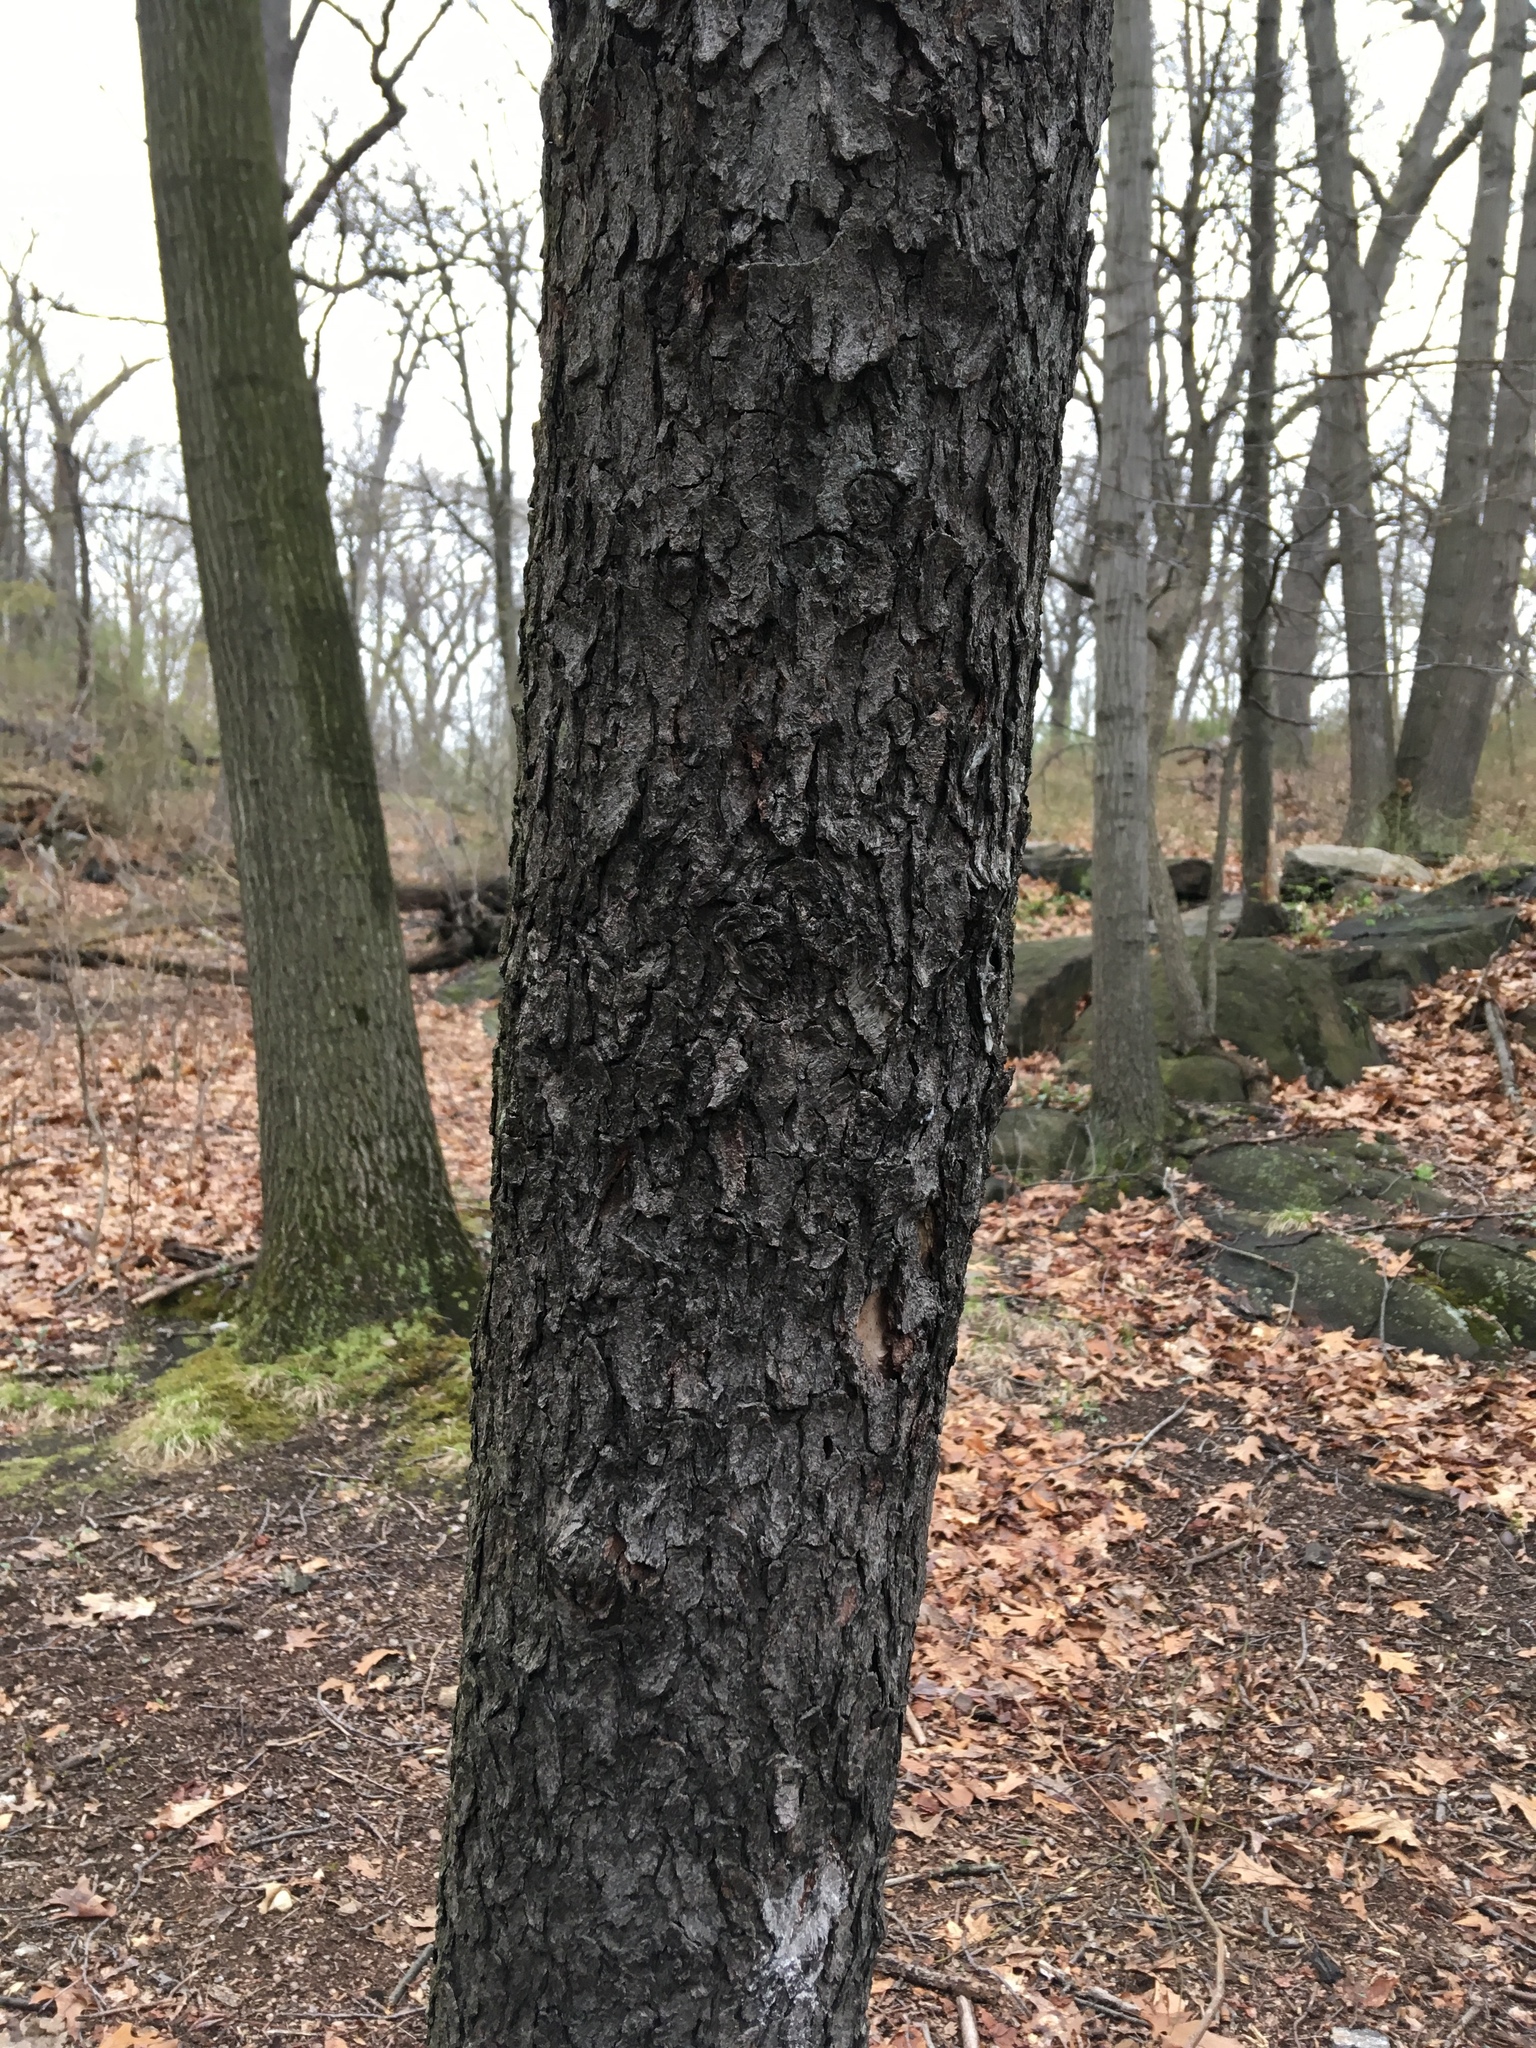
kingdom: Plantae
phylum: Tracheophyta
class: Magnoliopsida
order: Rosales
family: Rosaceae
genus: Prunus
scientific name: Prunus serotina
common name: Black cherry
